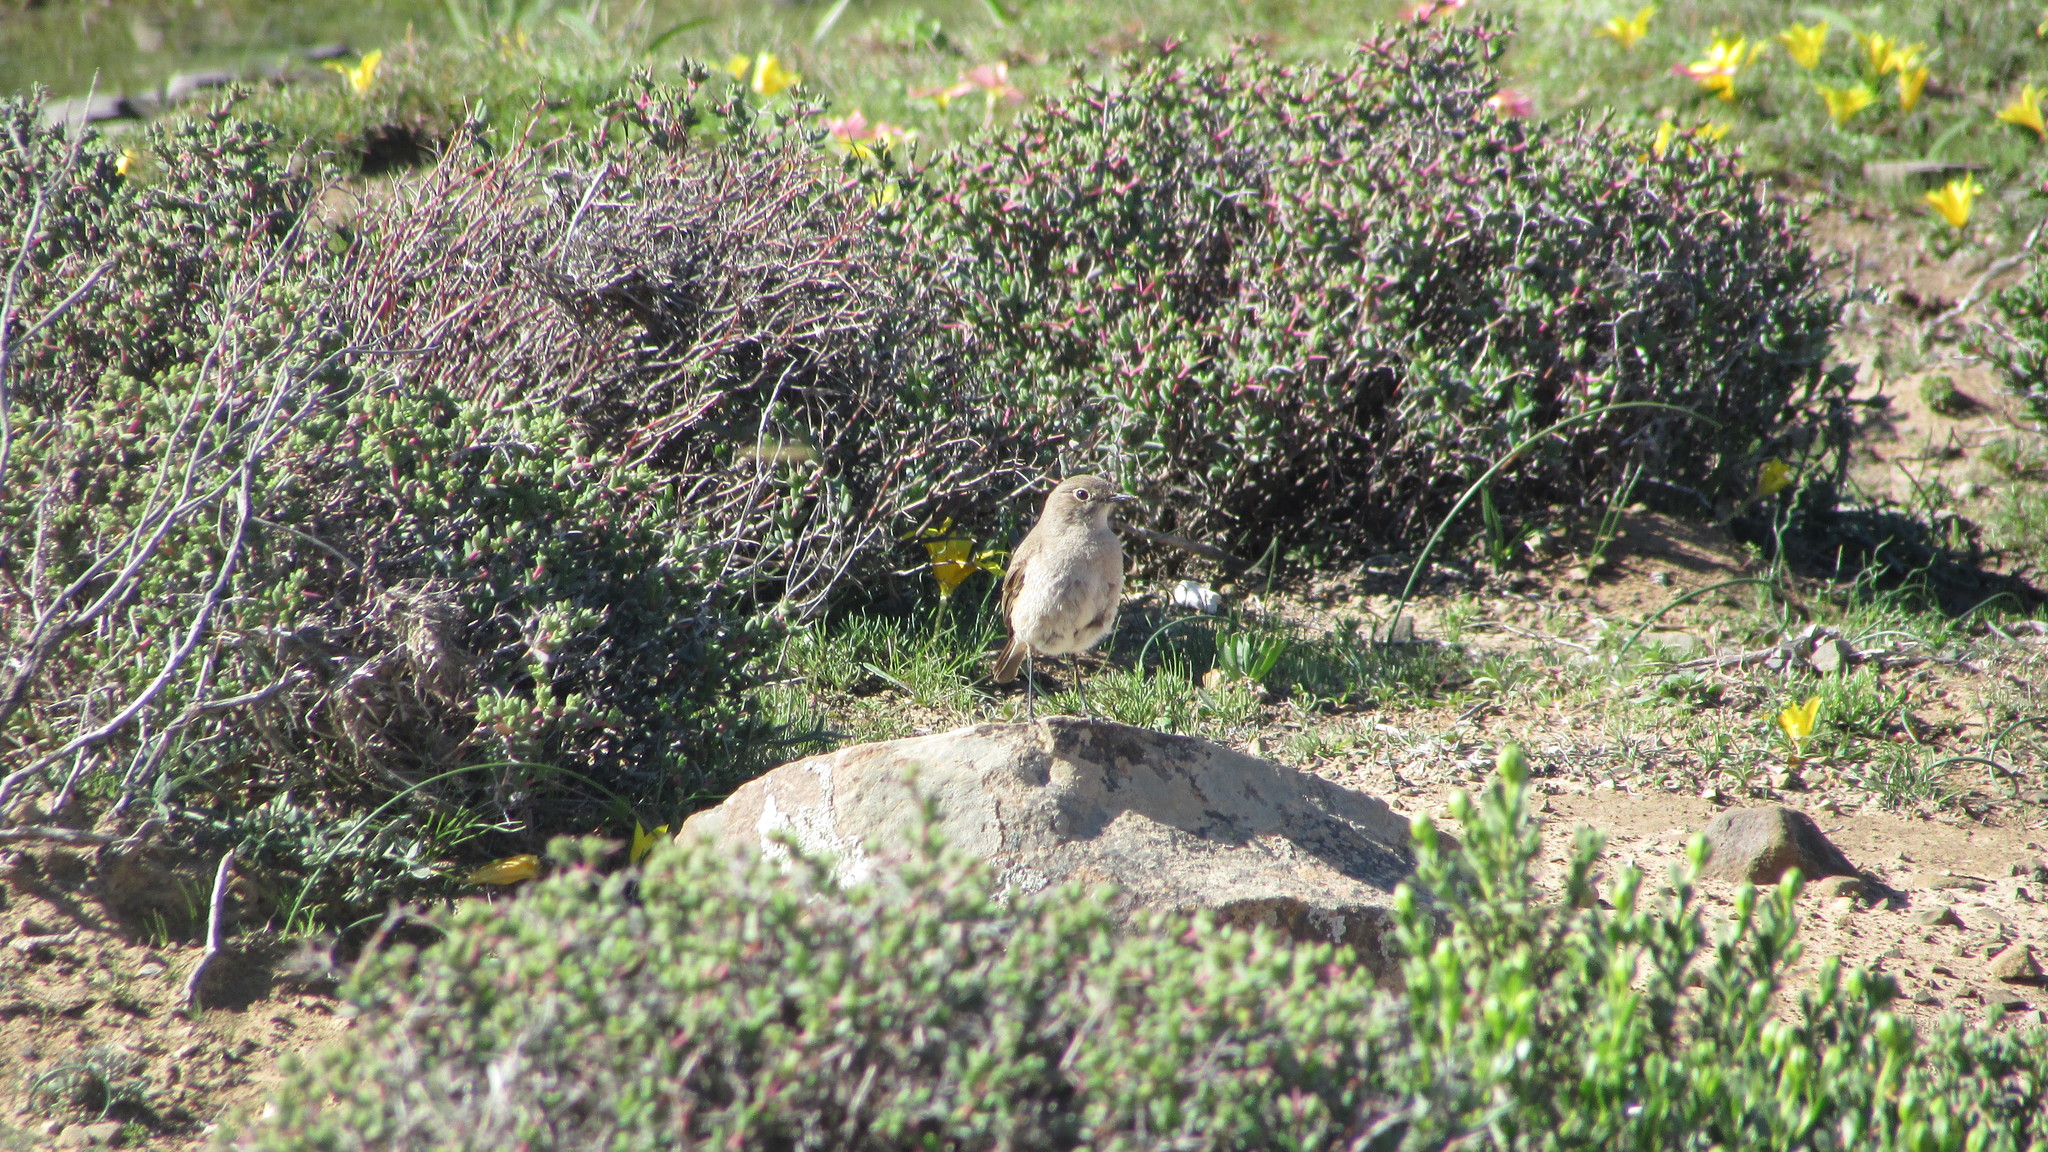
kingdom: Animalia
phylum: Chordata
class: Aves
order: Passeriformes
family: Muscicapidae
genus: Emarginata
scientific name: Emarginata sinuata
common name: Sickle-winged chat
